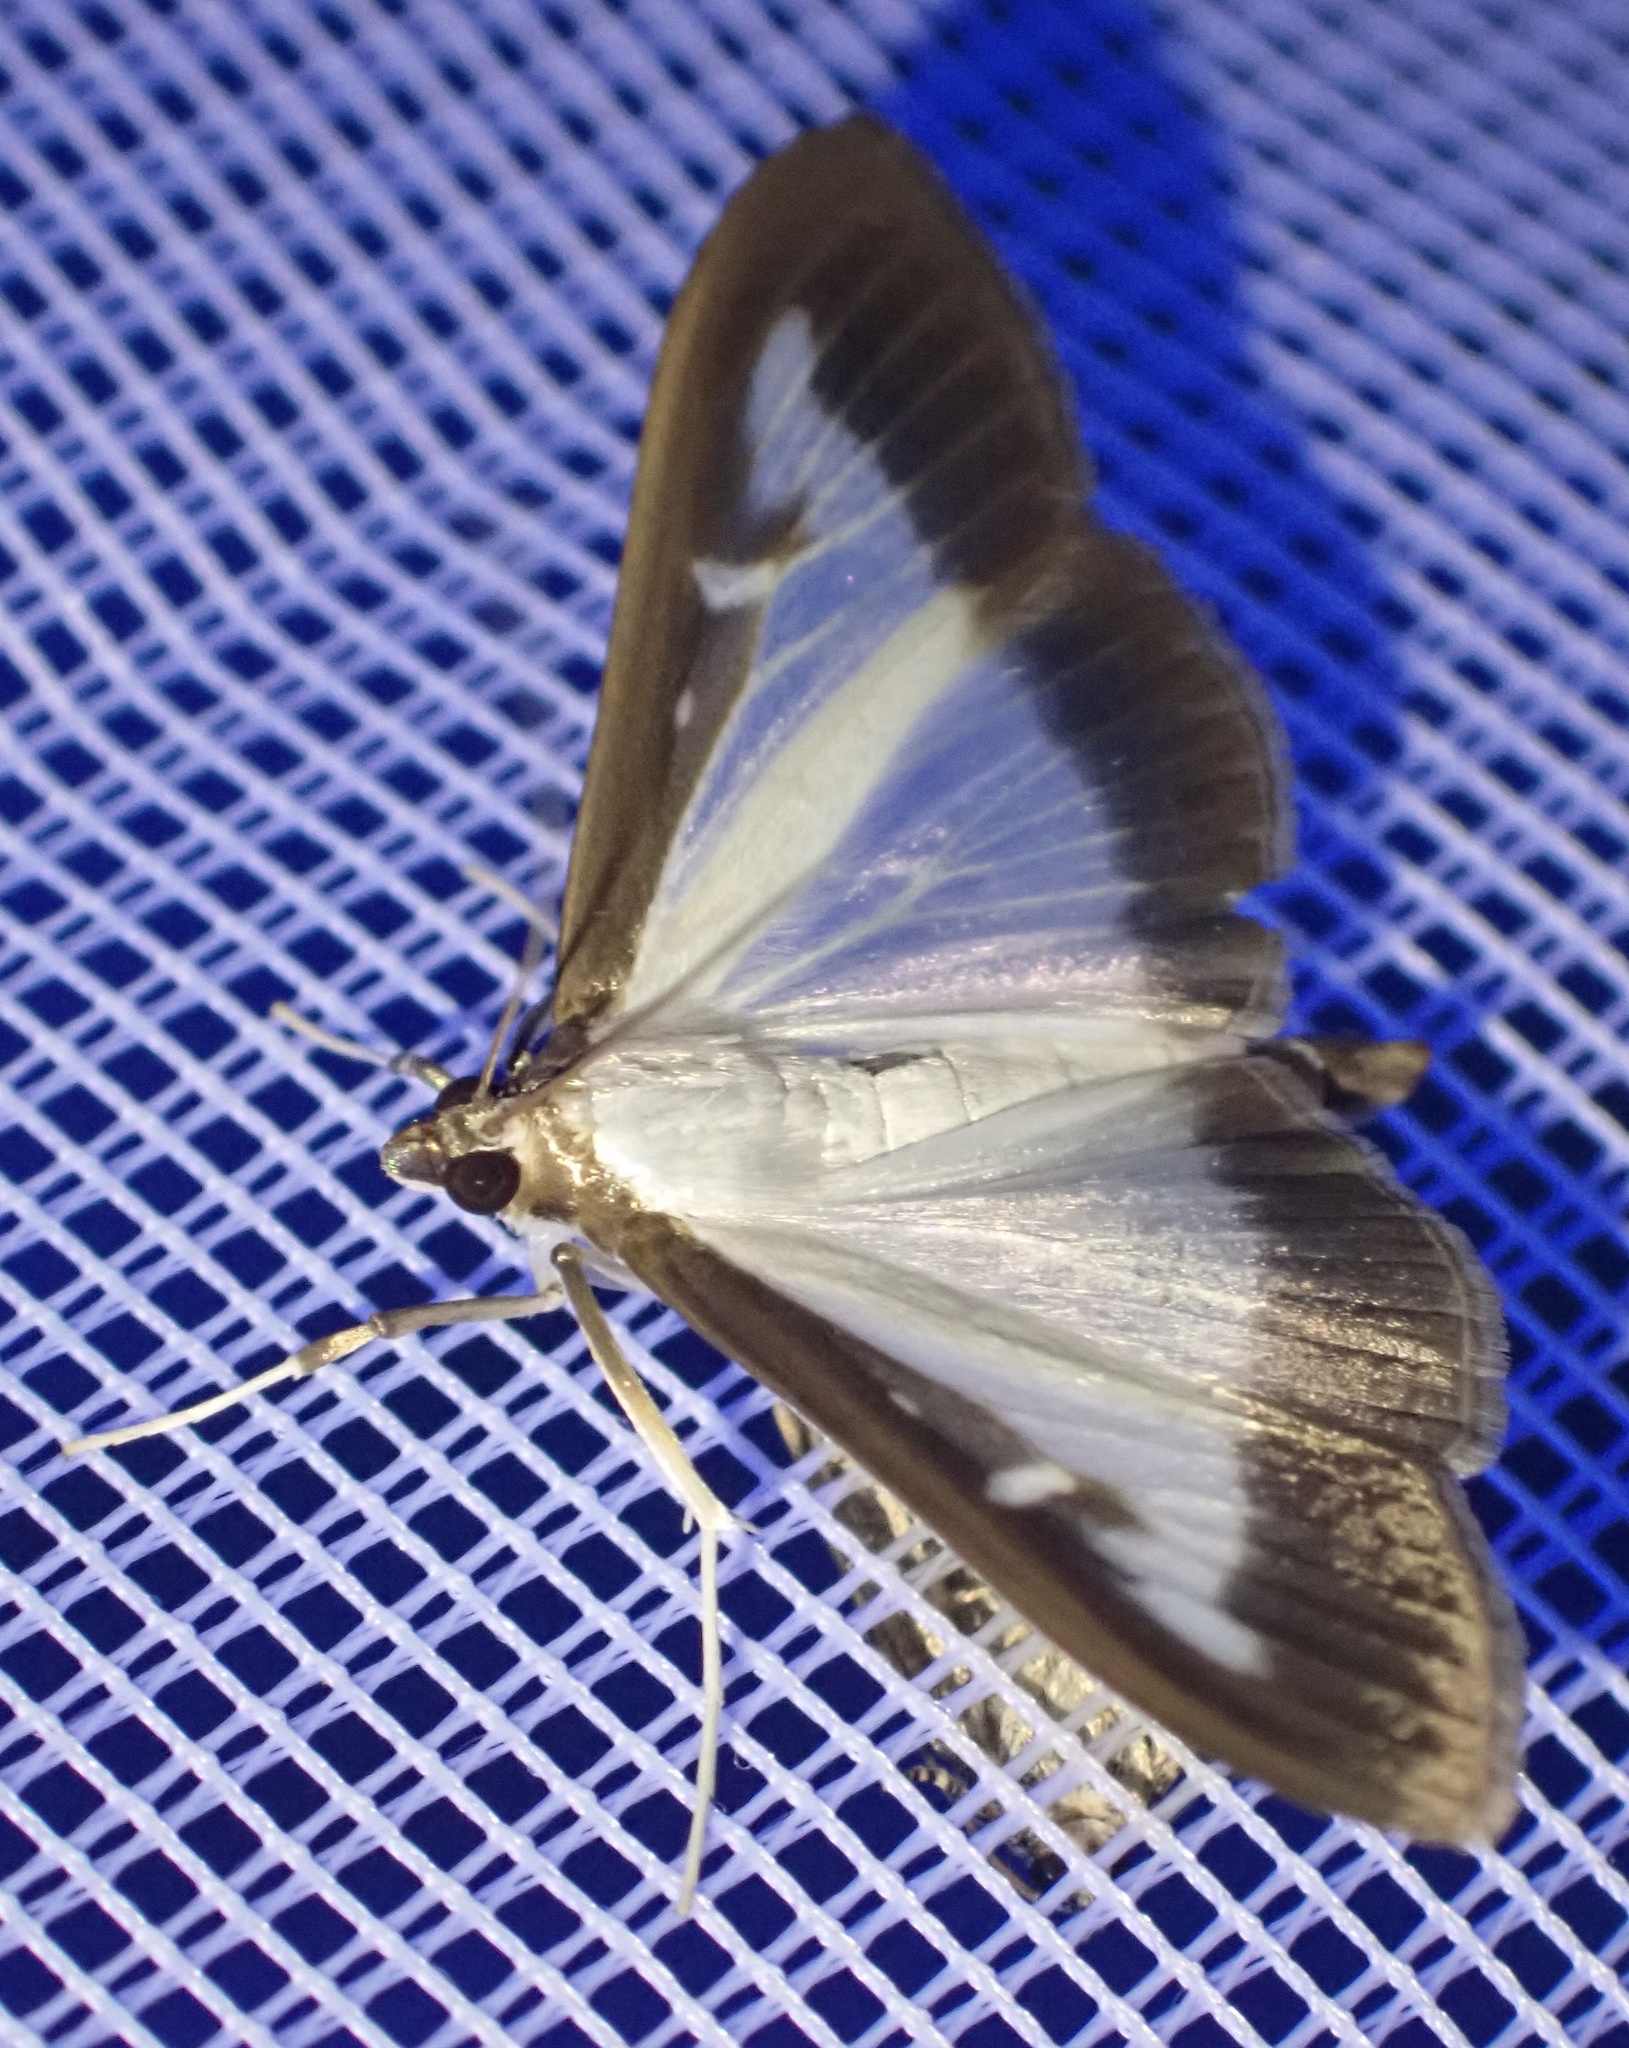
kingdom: Animalia
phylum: Arthropoda
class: Insecta
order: Lepidoptera
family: Crambidae
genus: Cydalima
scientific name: Cydalima perspectalis
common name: Box tree moth
